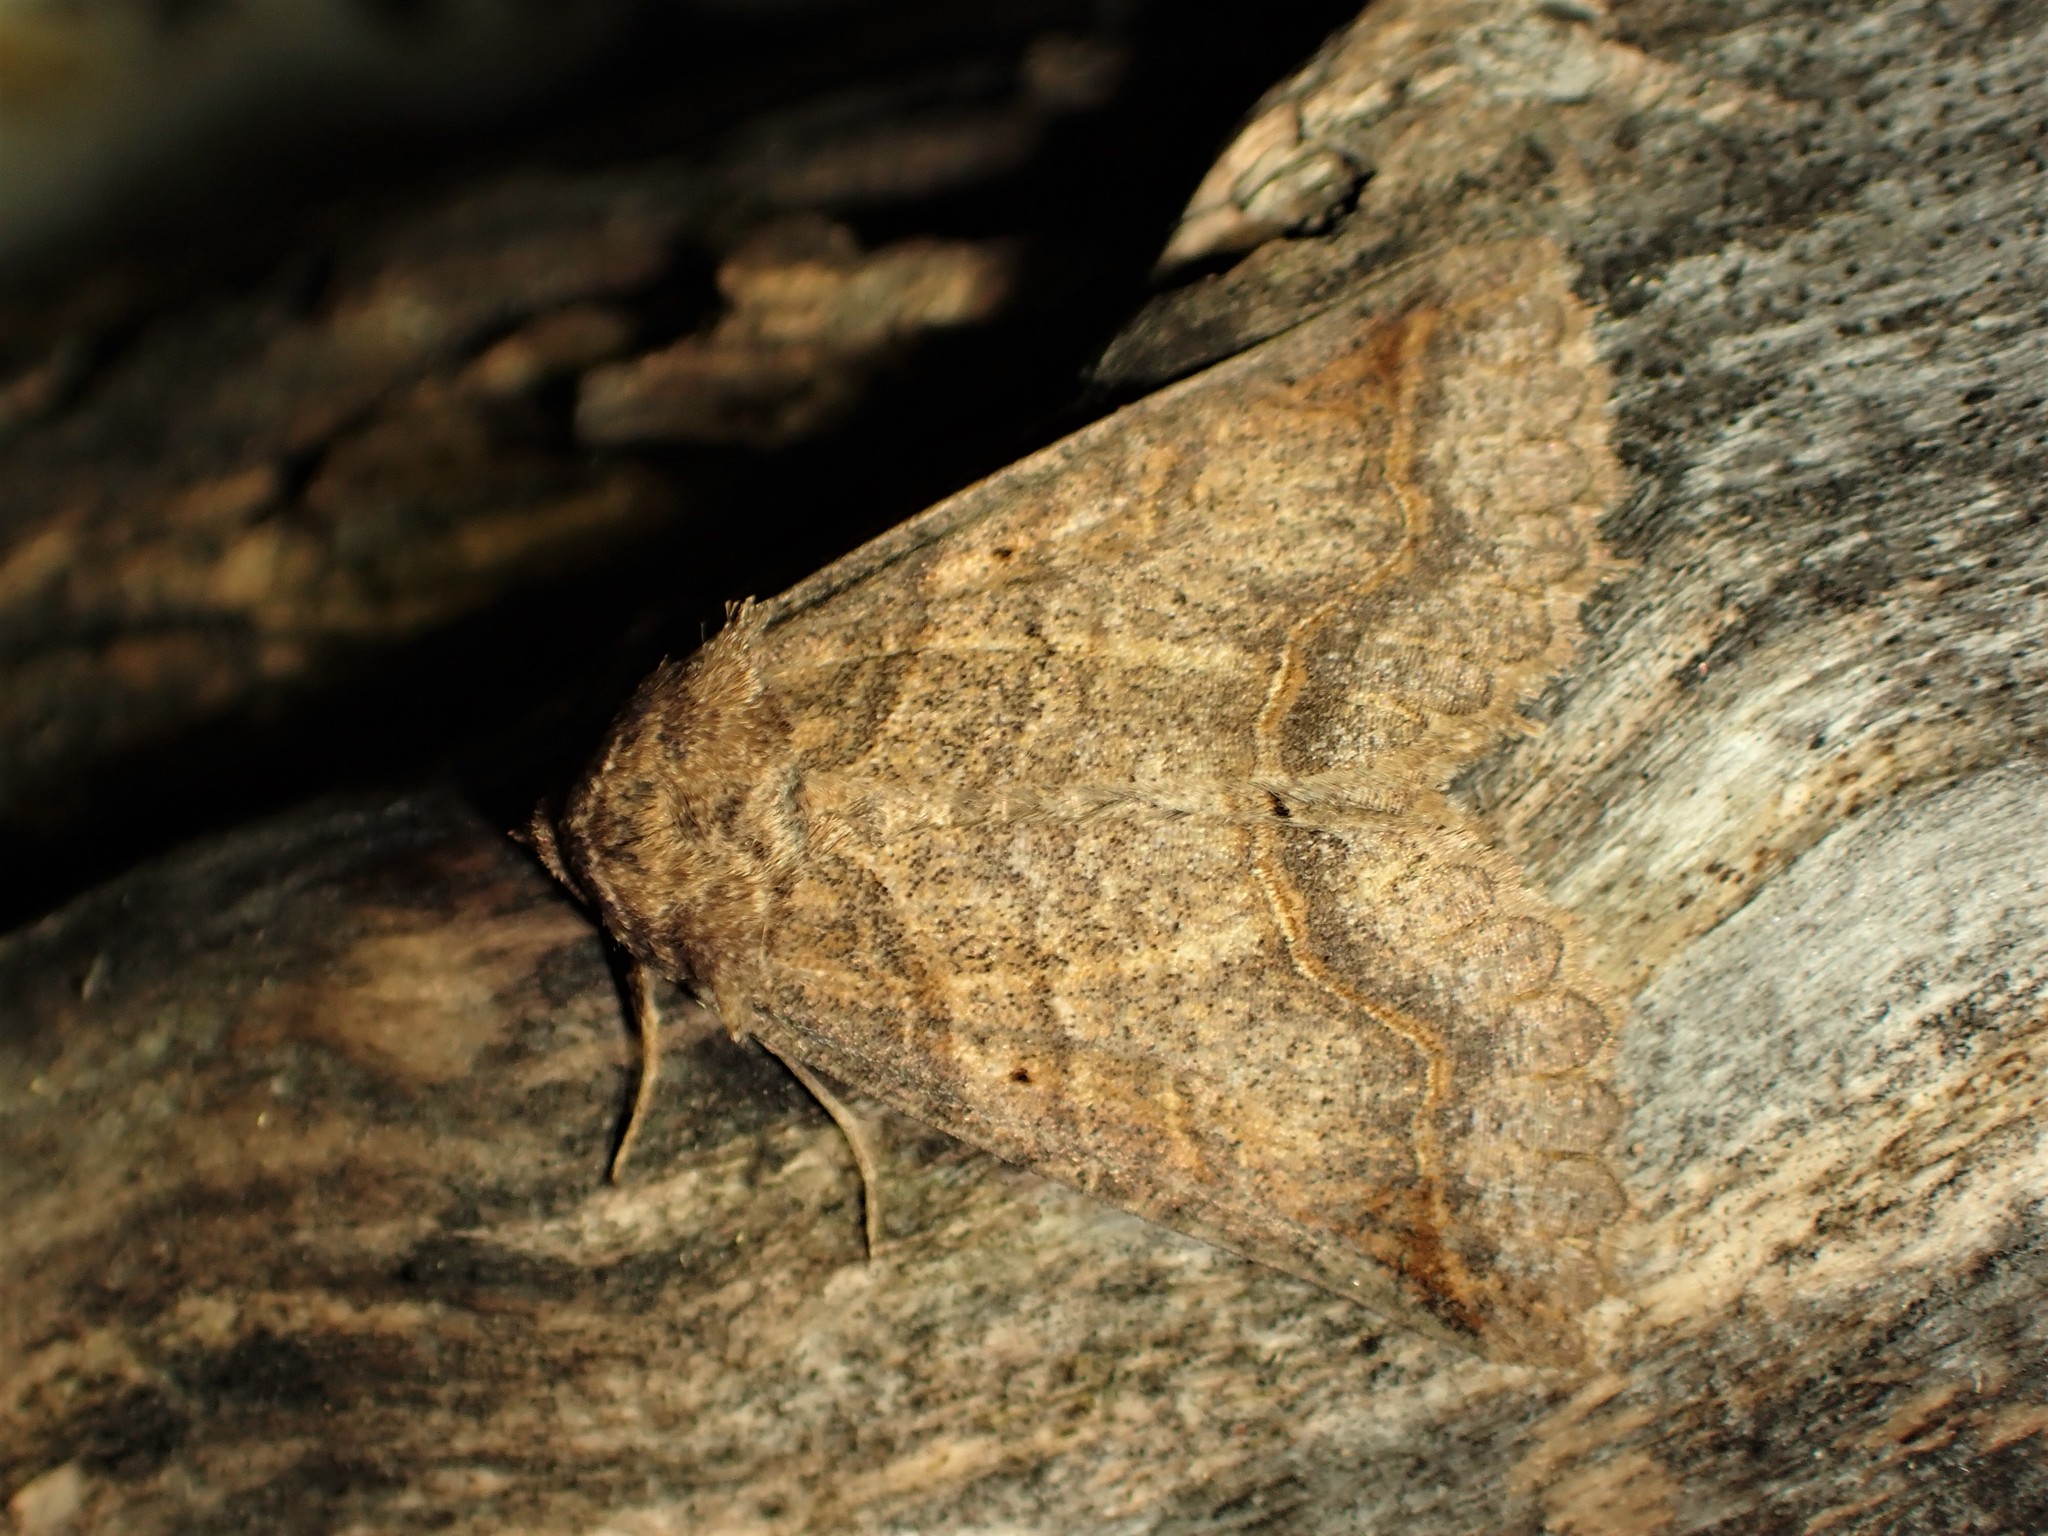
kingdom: Animalia
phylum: Arthropoda
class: Insecta
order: Lepidoptera
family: Erebidae
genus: Zale
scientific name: Zale unilineata
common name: One-lined zale moth
